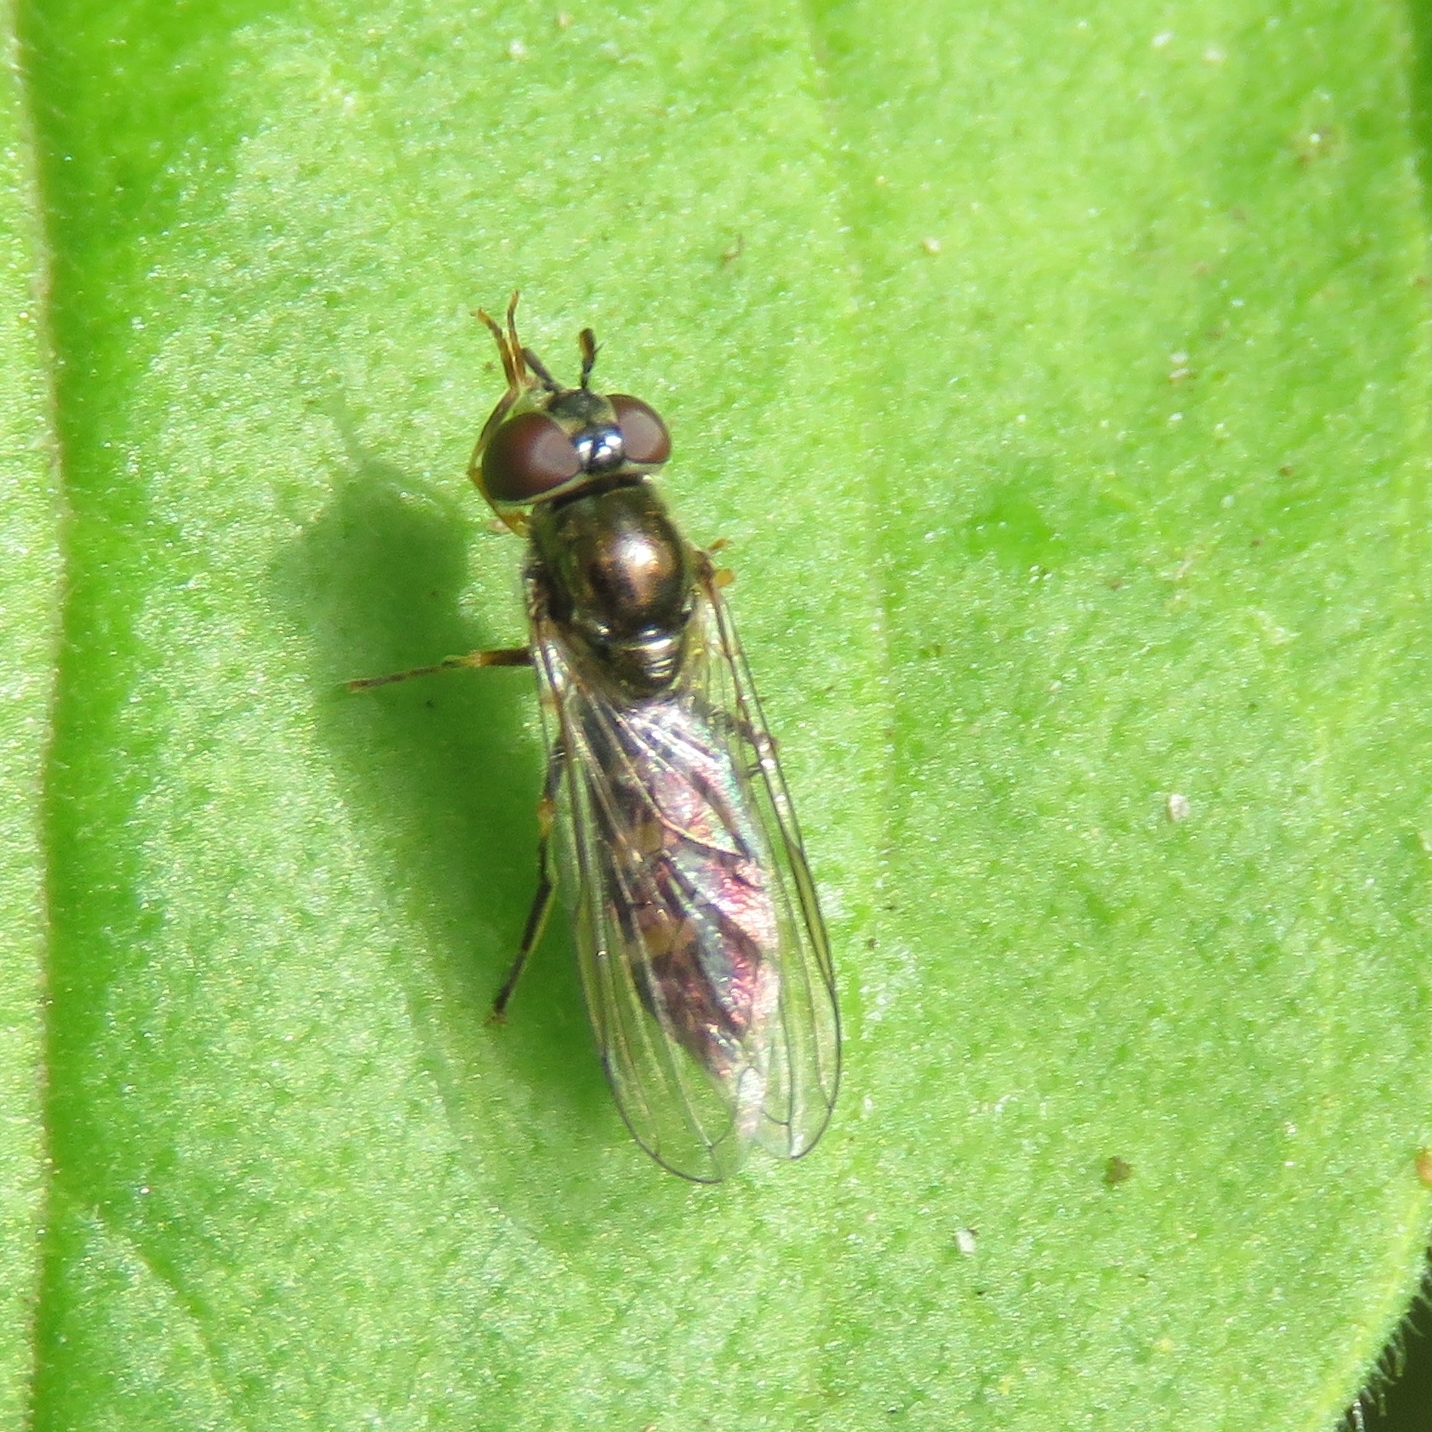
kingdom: Animalia
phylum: Arthropoda
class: Insecta
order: Diptera
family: Syrphidae
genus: Platycheirus
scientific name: Platycheirus
